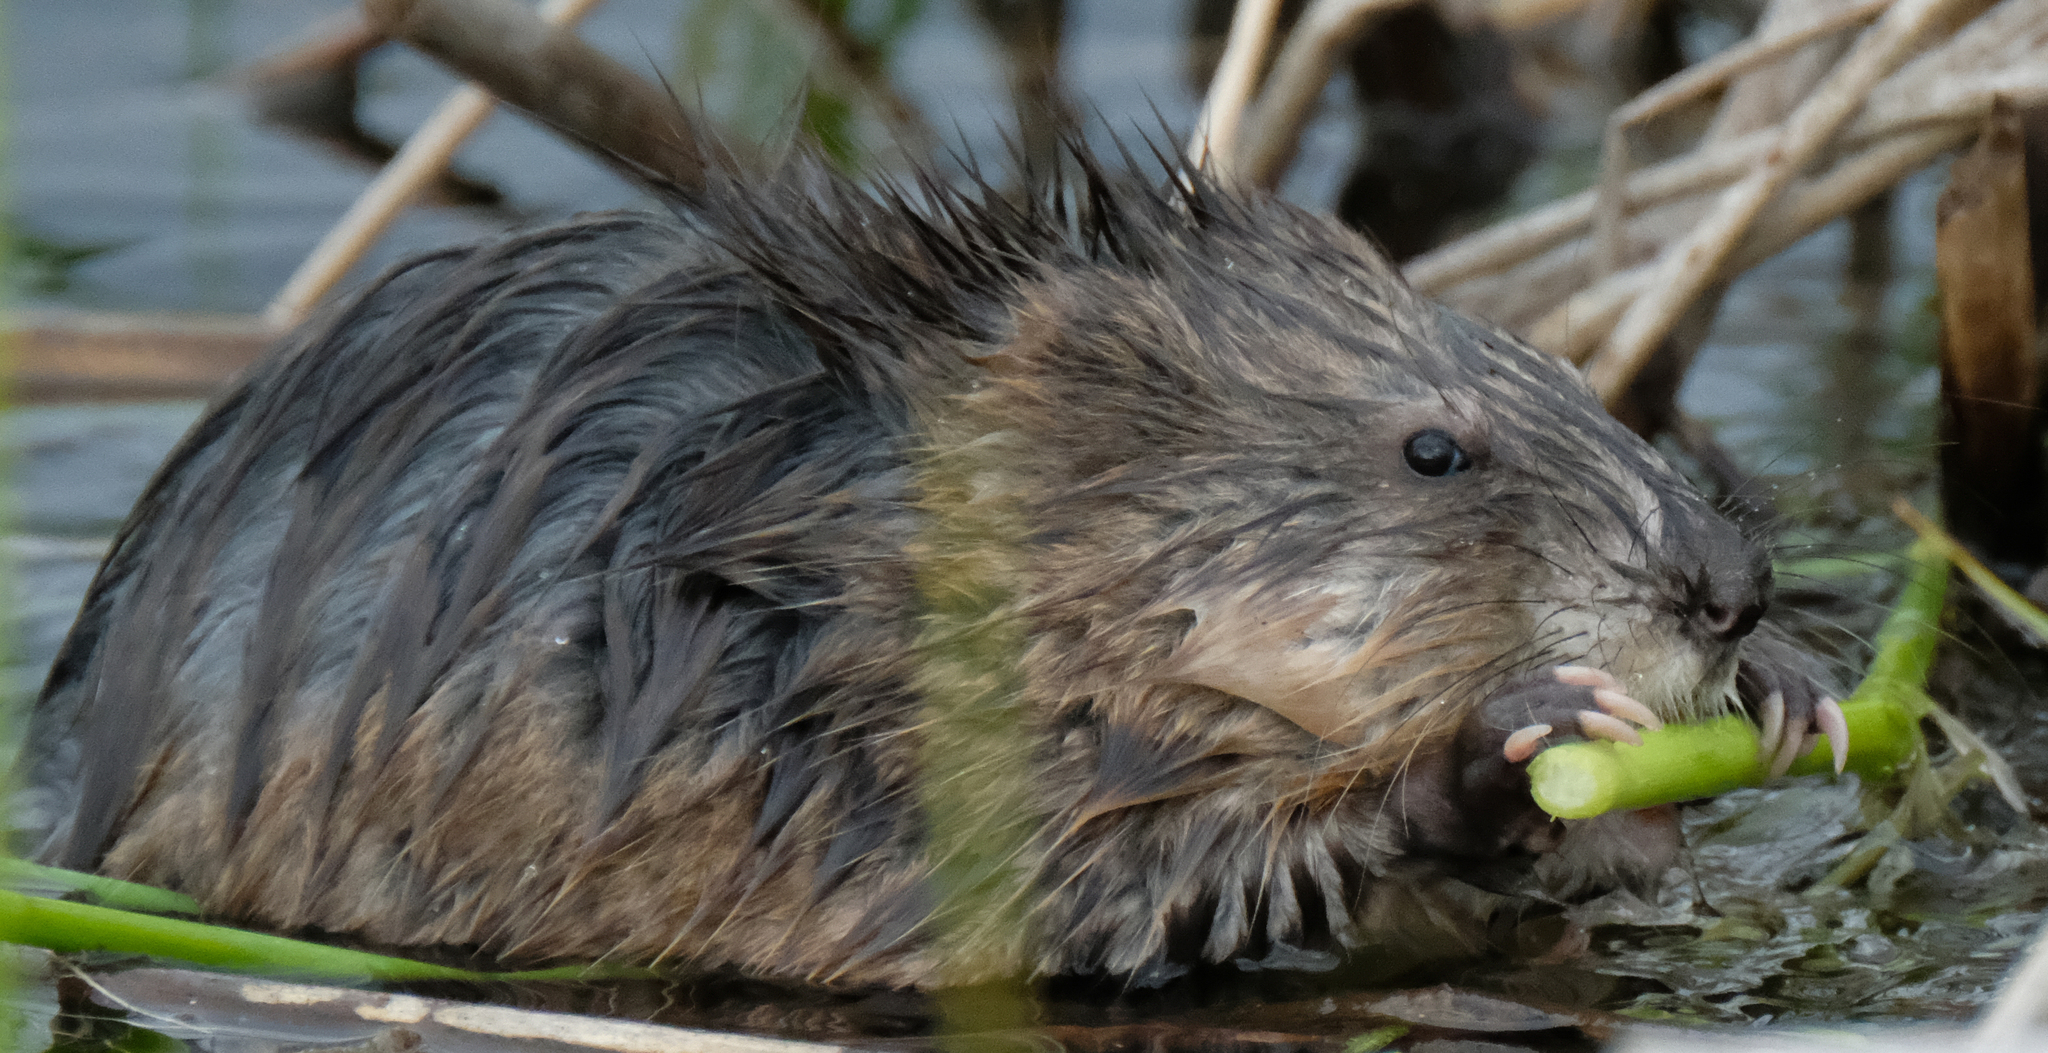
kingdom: Animalia
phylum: Chordata
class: Mammalia
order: Rodentia
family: Cricetidae
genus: Ondatra
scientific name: Ondatra zibethicus
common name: Muskrat
